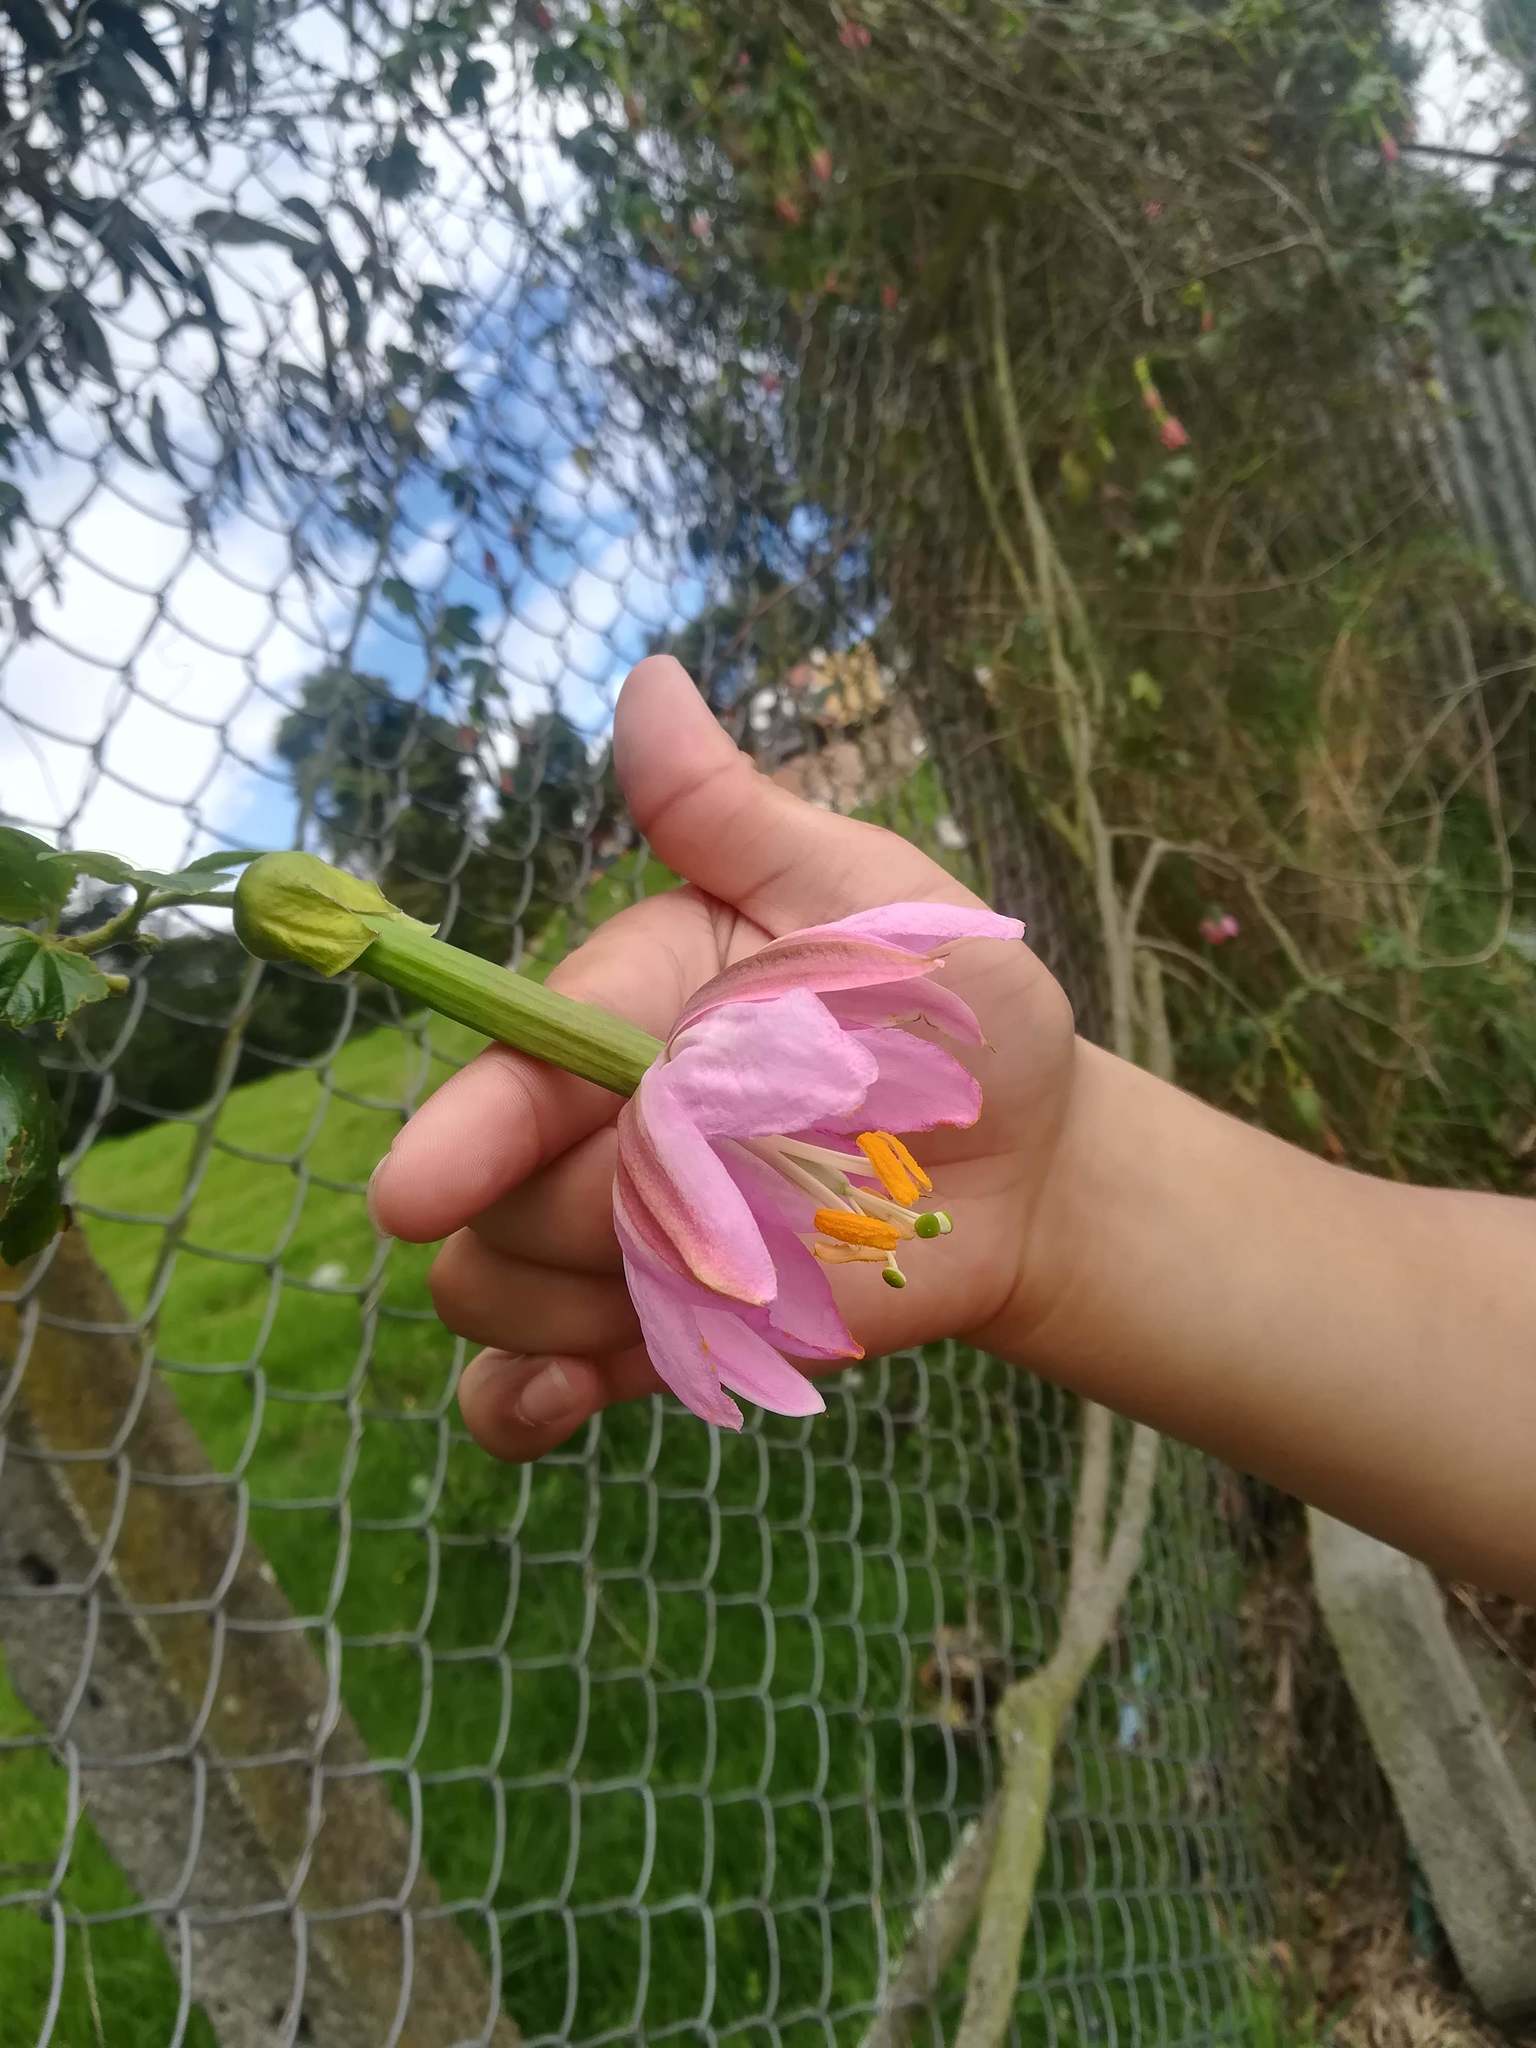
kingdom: Plantae
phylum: Tracheophyta
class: Magnoliopsida
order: Malpighiales
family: Passifloraceae
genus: Passiflora
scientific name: Passiflora tarminiana
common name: Banana poka
